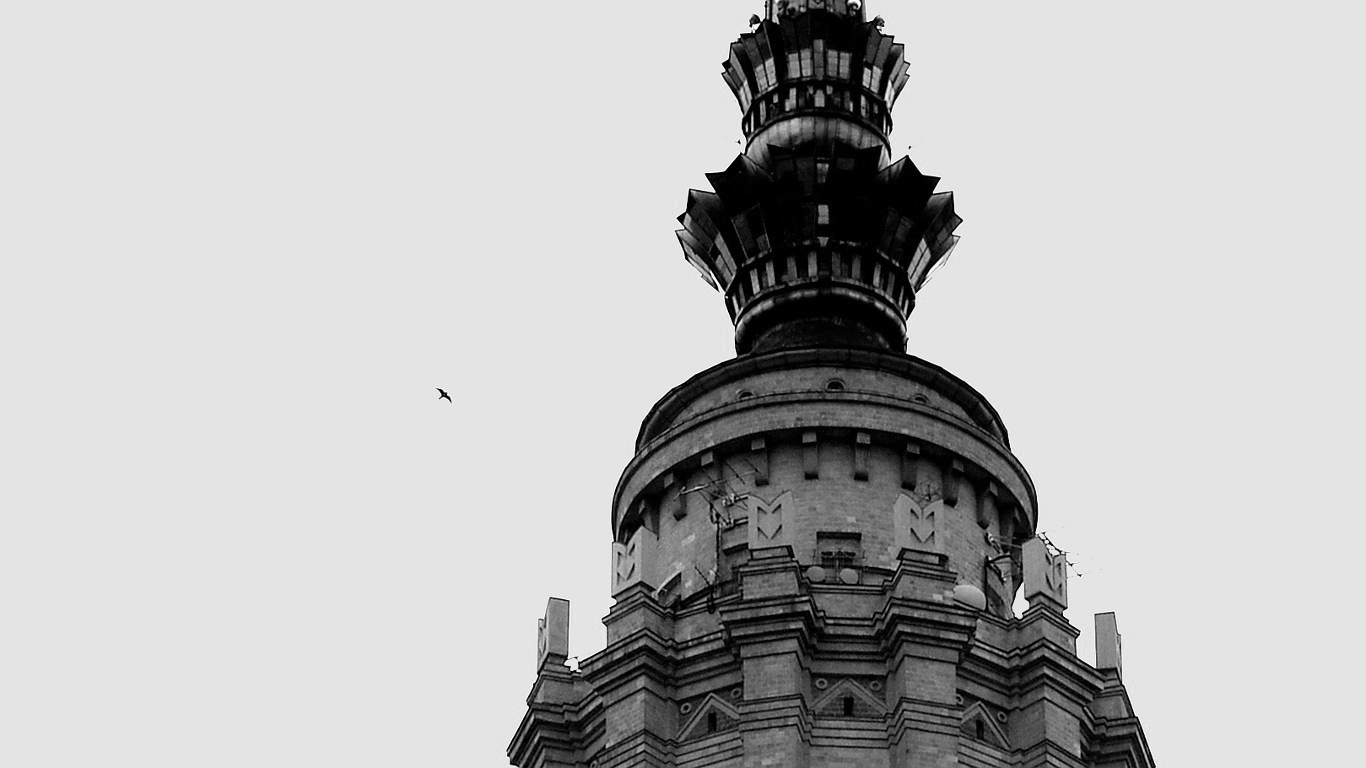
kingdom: Animalia
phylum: Chordata
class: Aves
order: Falconiformes
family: Falconidae
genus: Falco
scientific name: Falco peregrinus
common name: Peregrine falcon
